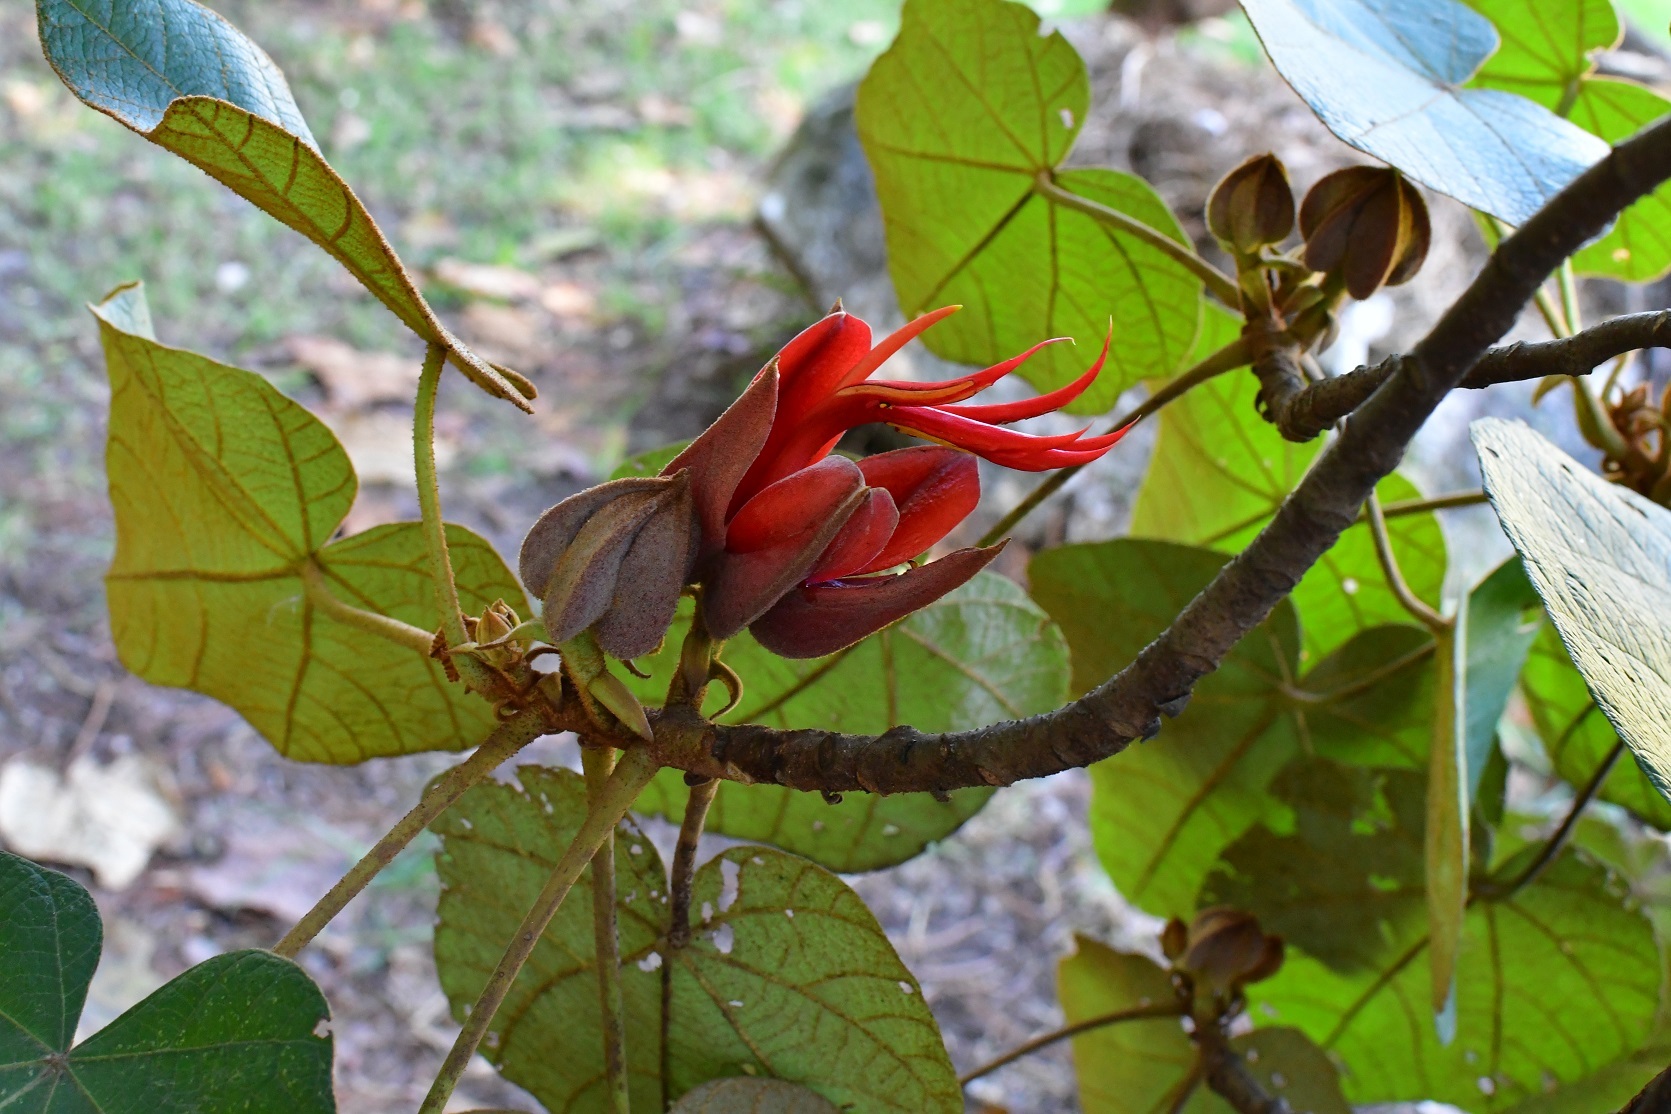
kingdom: Plantae
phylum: Tracheophyta
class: Magnoliopsida
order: Malvales
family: Malvaceae
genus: Chiranthodendron
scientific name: Chiranthodendron pentadactylon
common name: Mexican-hat-plant
